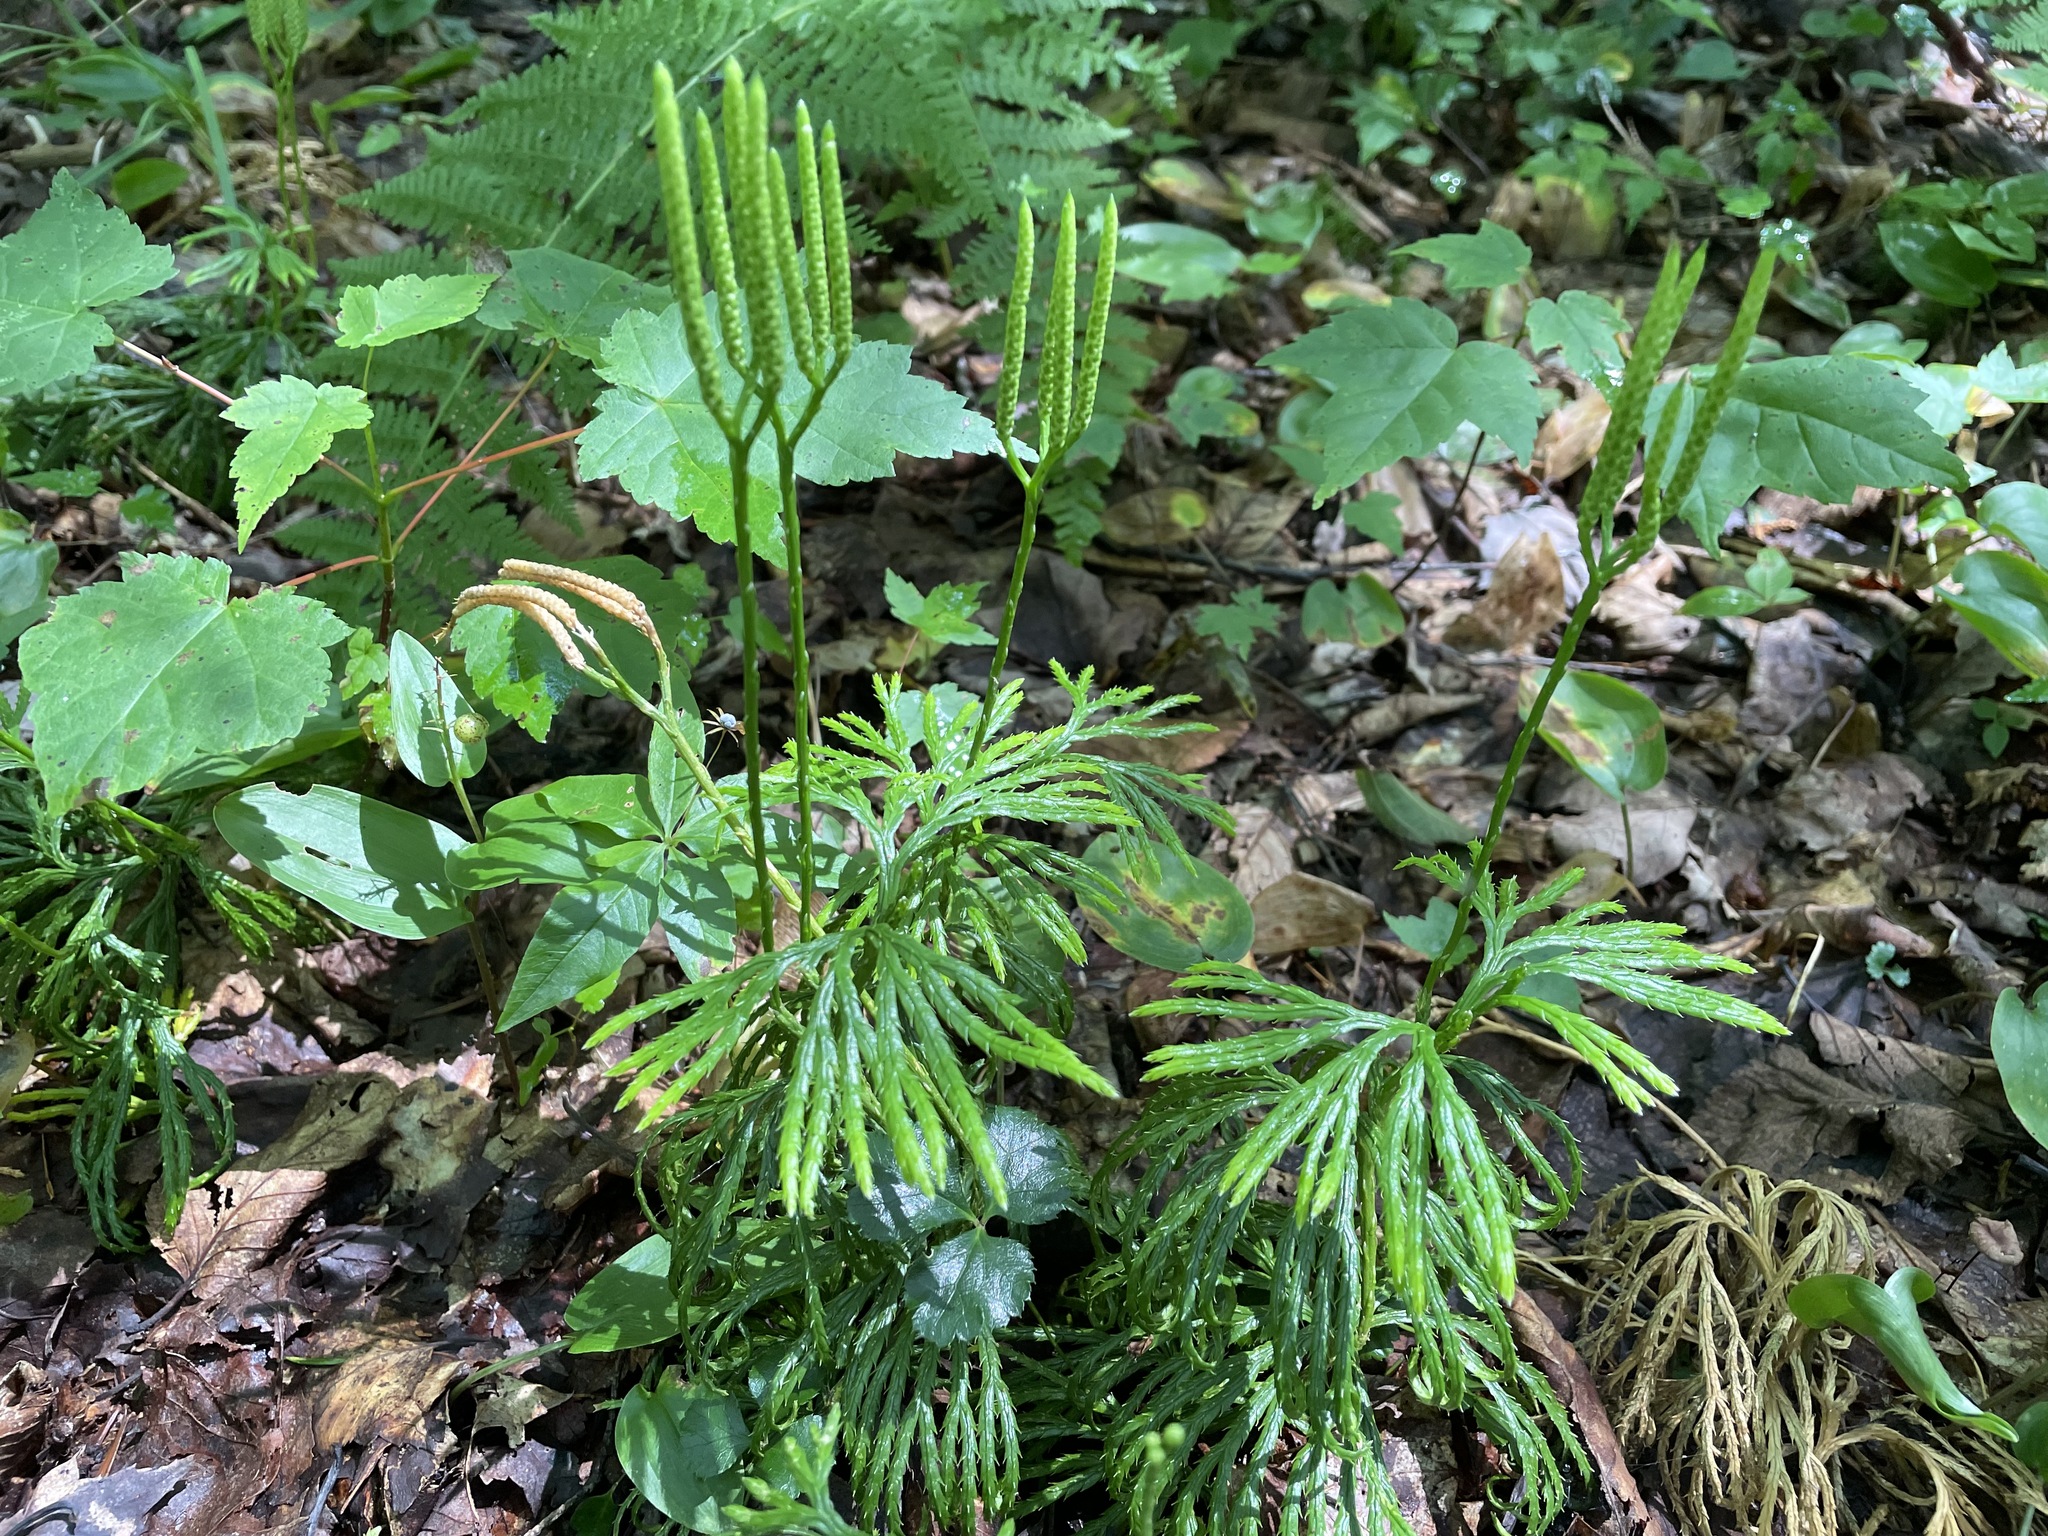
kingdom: Plantae
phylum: Tracheophyta
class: Lycopodiopsida
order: Lycopodiales
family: Lycopodiaceae
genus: Diphasiastrum
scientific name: Diphasiastrum digitatum
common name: Southern running-pine
